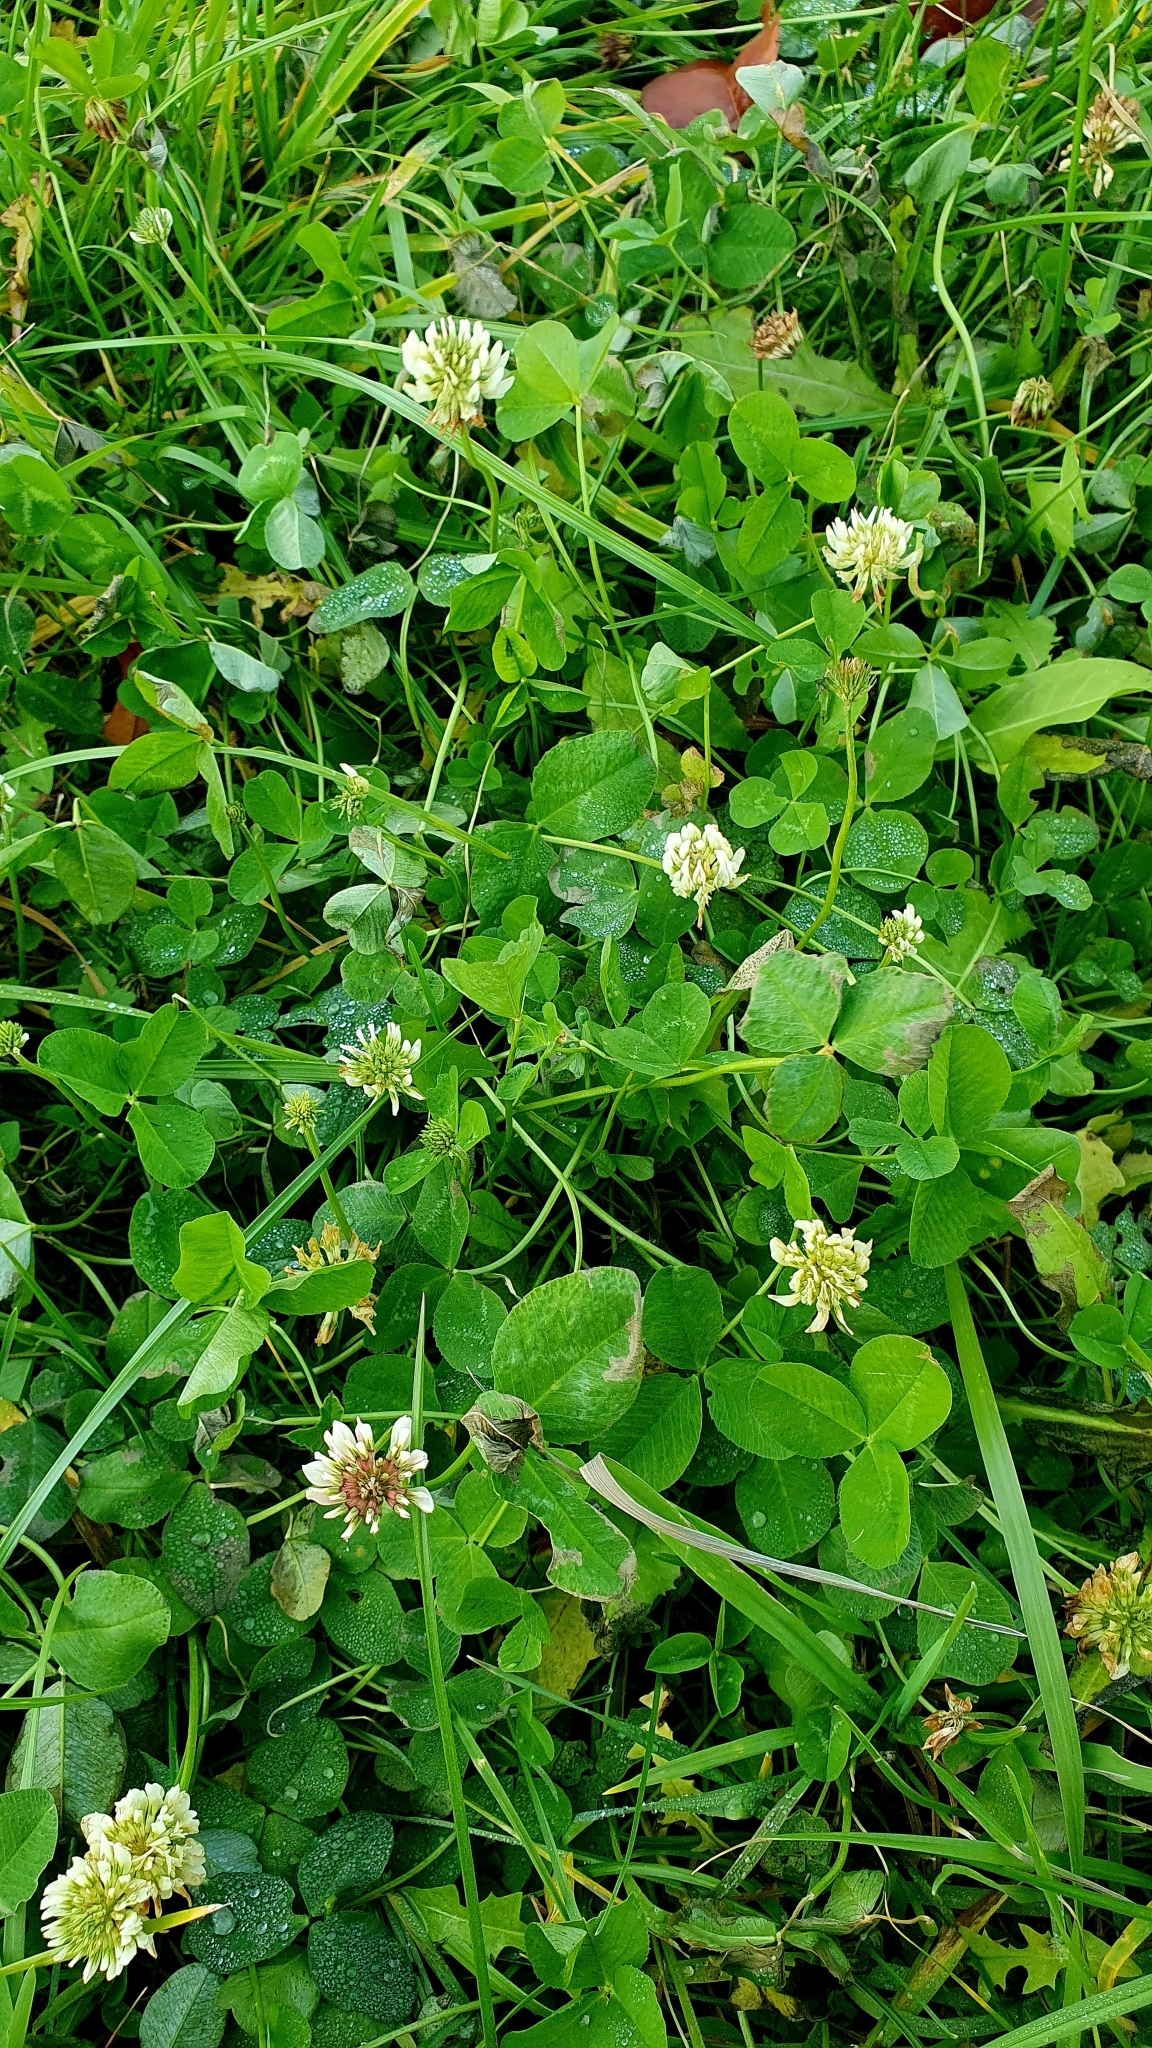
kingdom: Plantae
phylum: Tracheophyta
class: Magnoliopsida
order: Fabales
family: Fabaceae
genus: Trifolium
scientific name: Trifolium repens
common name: White clover
